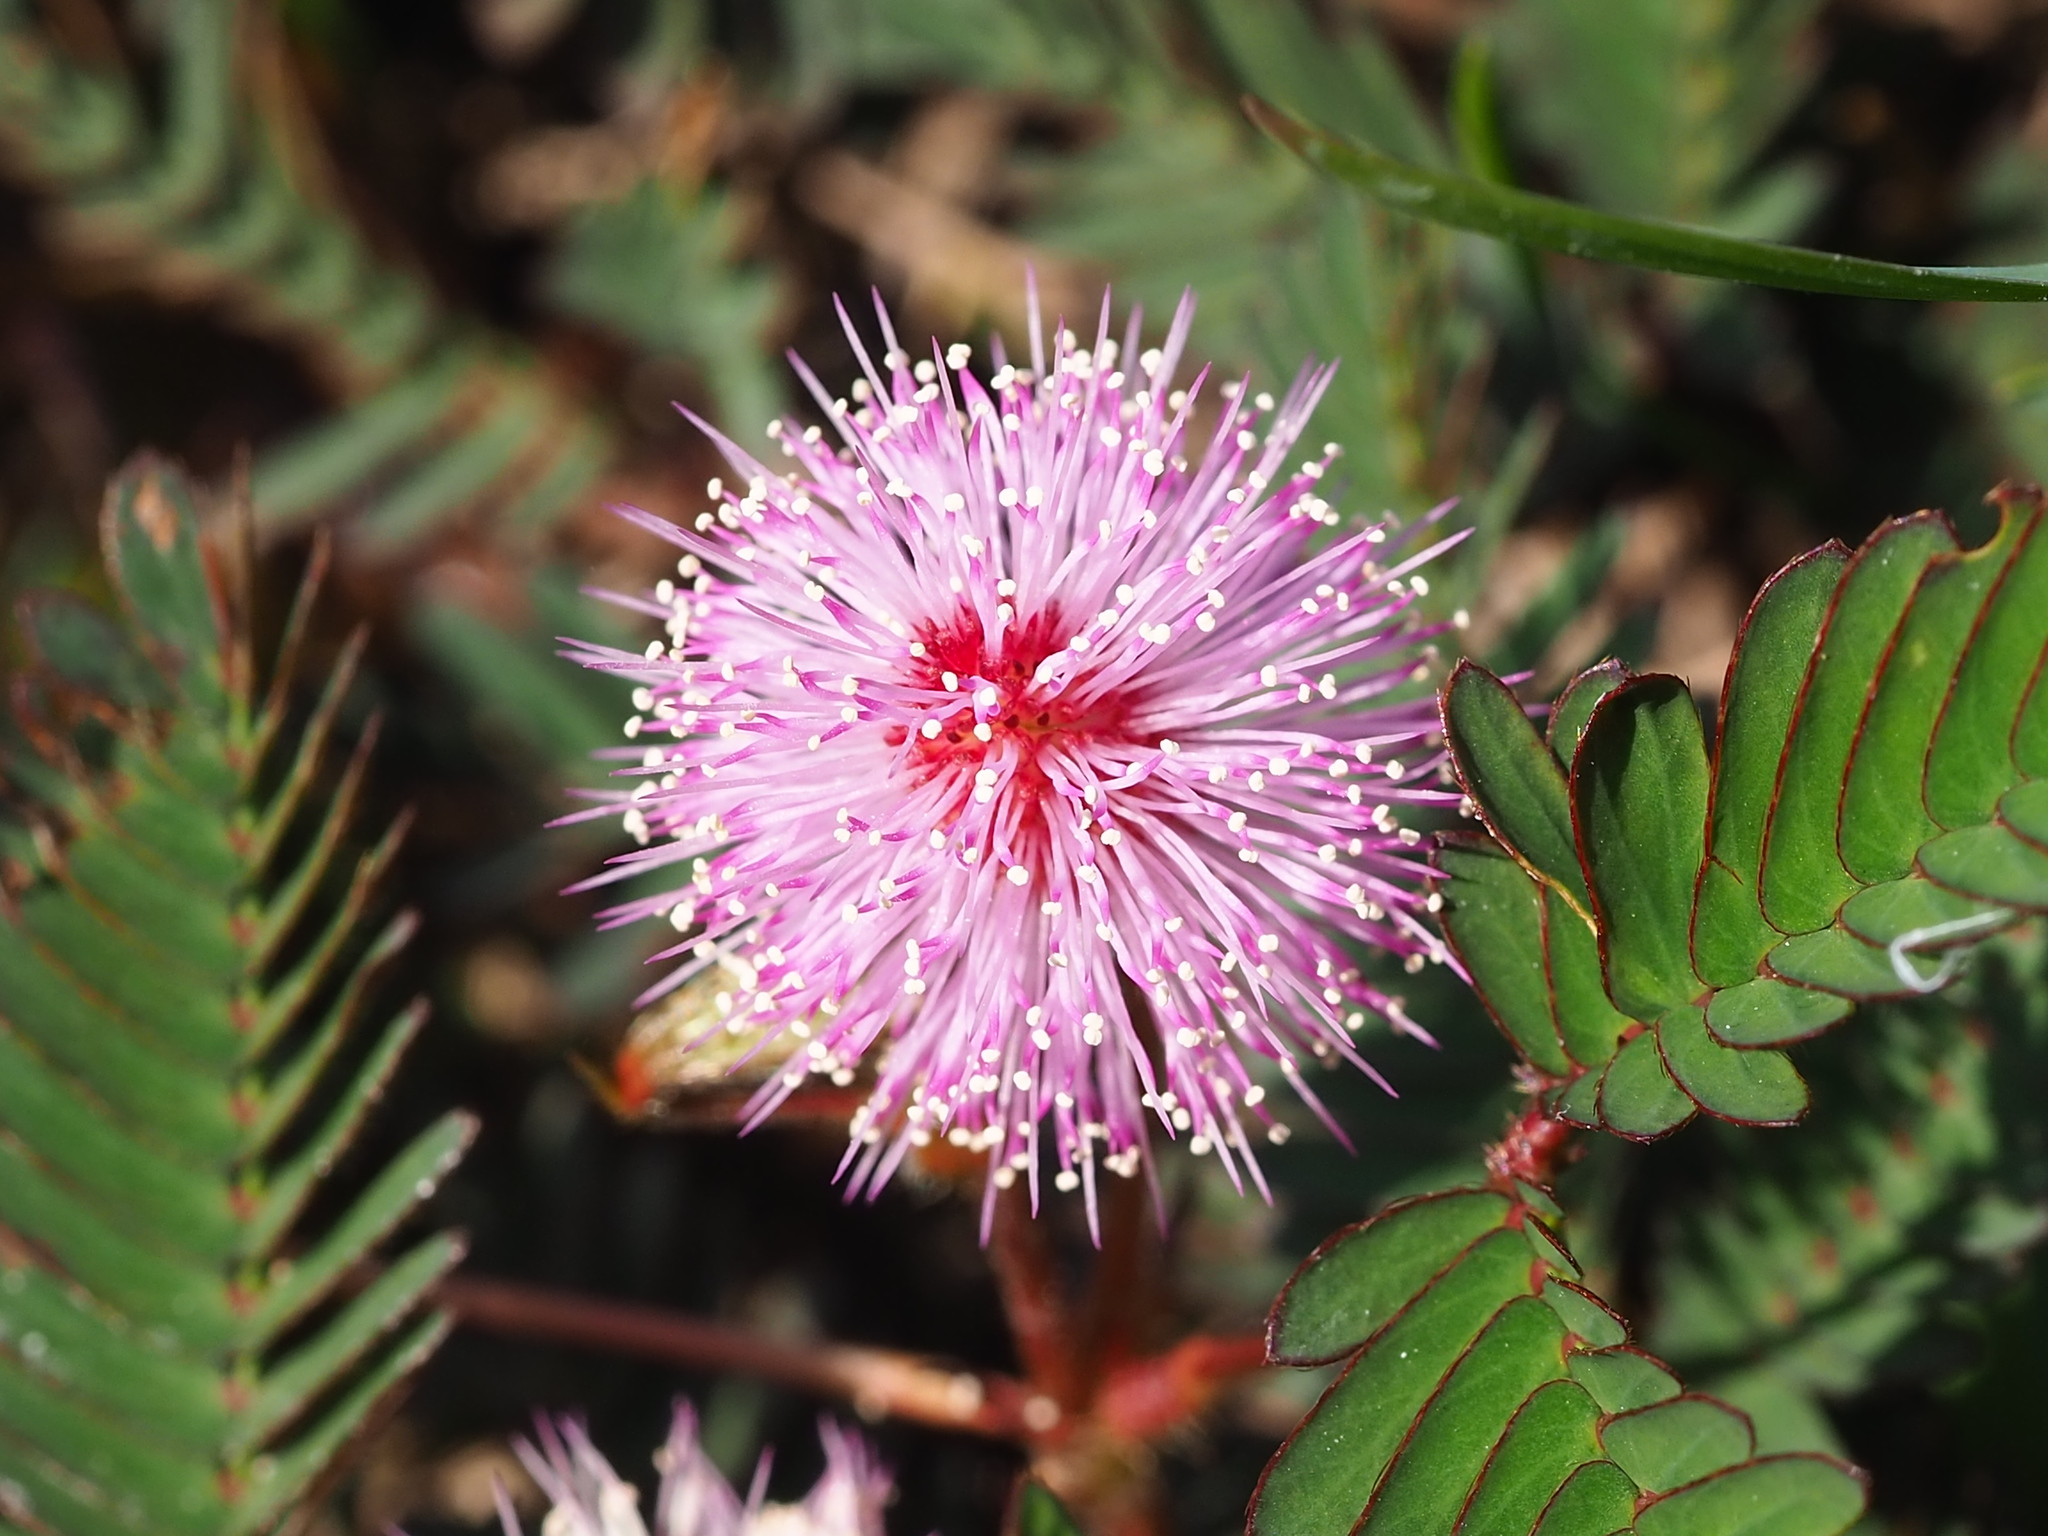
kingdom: Plantae
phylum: Tracheophyta
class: Magnoliopsida
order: Fabales
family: Fabaceae
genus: Mimosa
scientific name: Mimosa pudica
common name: Sensitive plant
